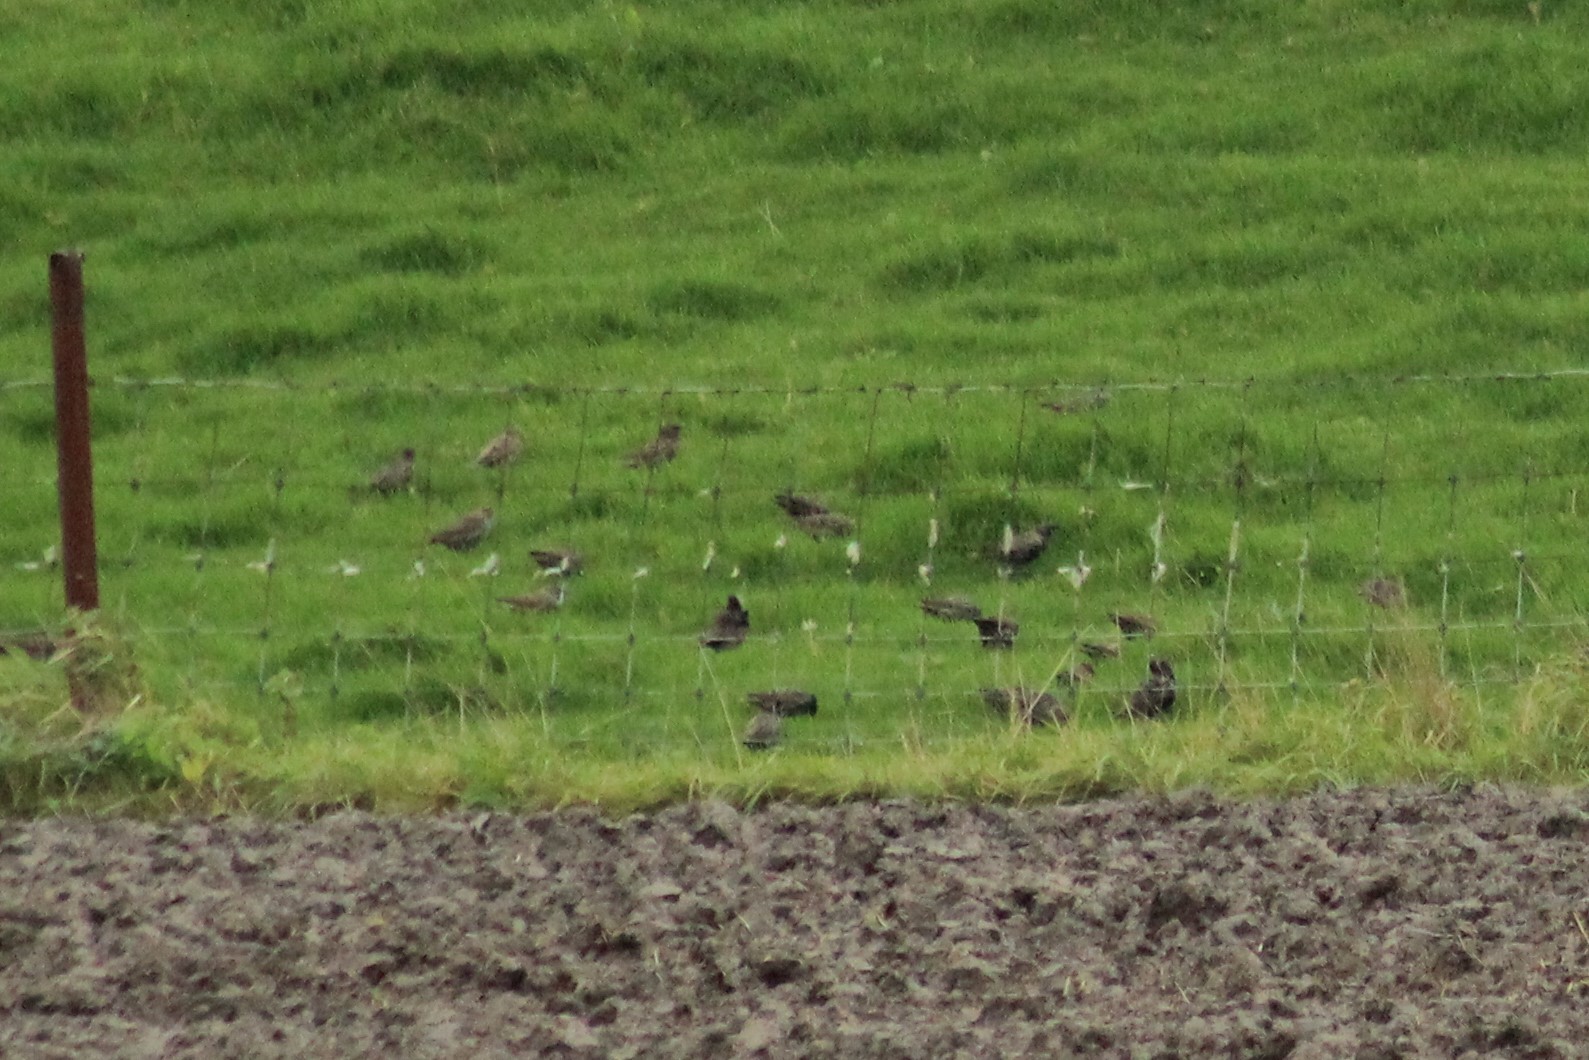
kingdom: Animalia
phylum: Chordata
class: Aves
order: Passeriformes
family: Sturnidae
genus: Sturnus
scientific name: Sturnus vulgaris
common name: Common starling
